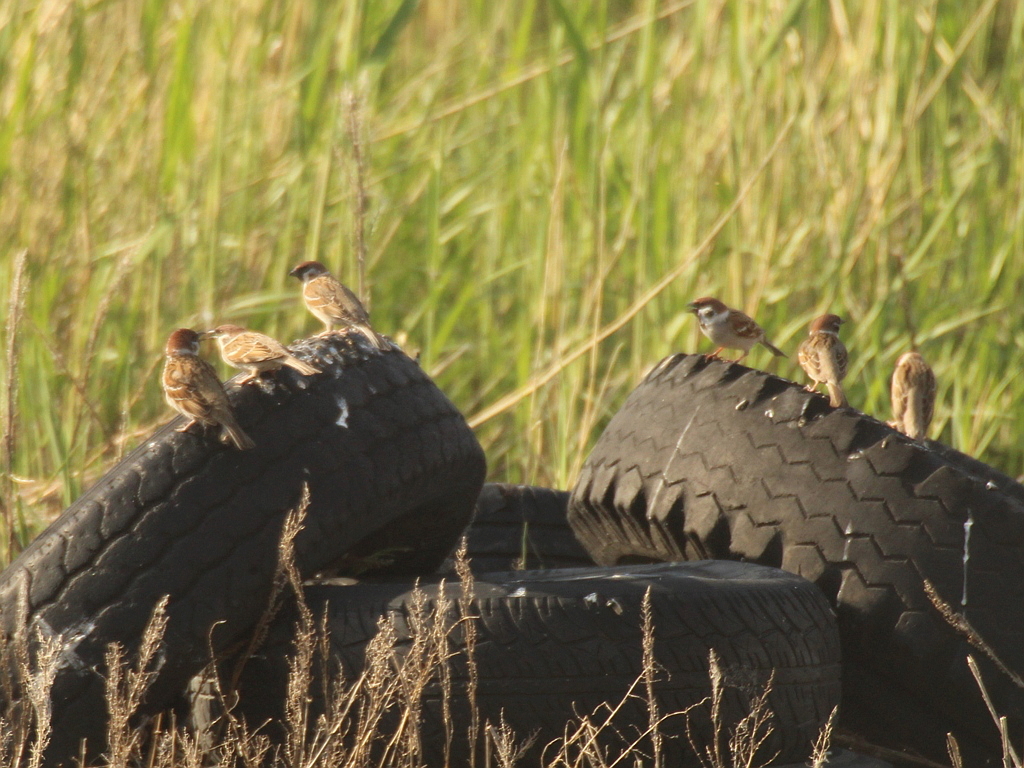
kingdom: Animalia
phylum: Chordata
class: Aves
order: Passeriformes
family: Passeridae
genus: Passer
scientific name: Passer montanus
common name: Eurasian tree sparrow
